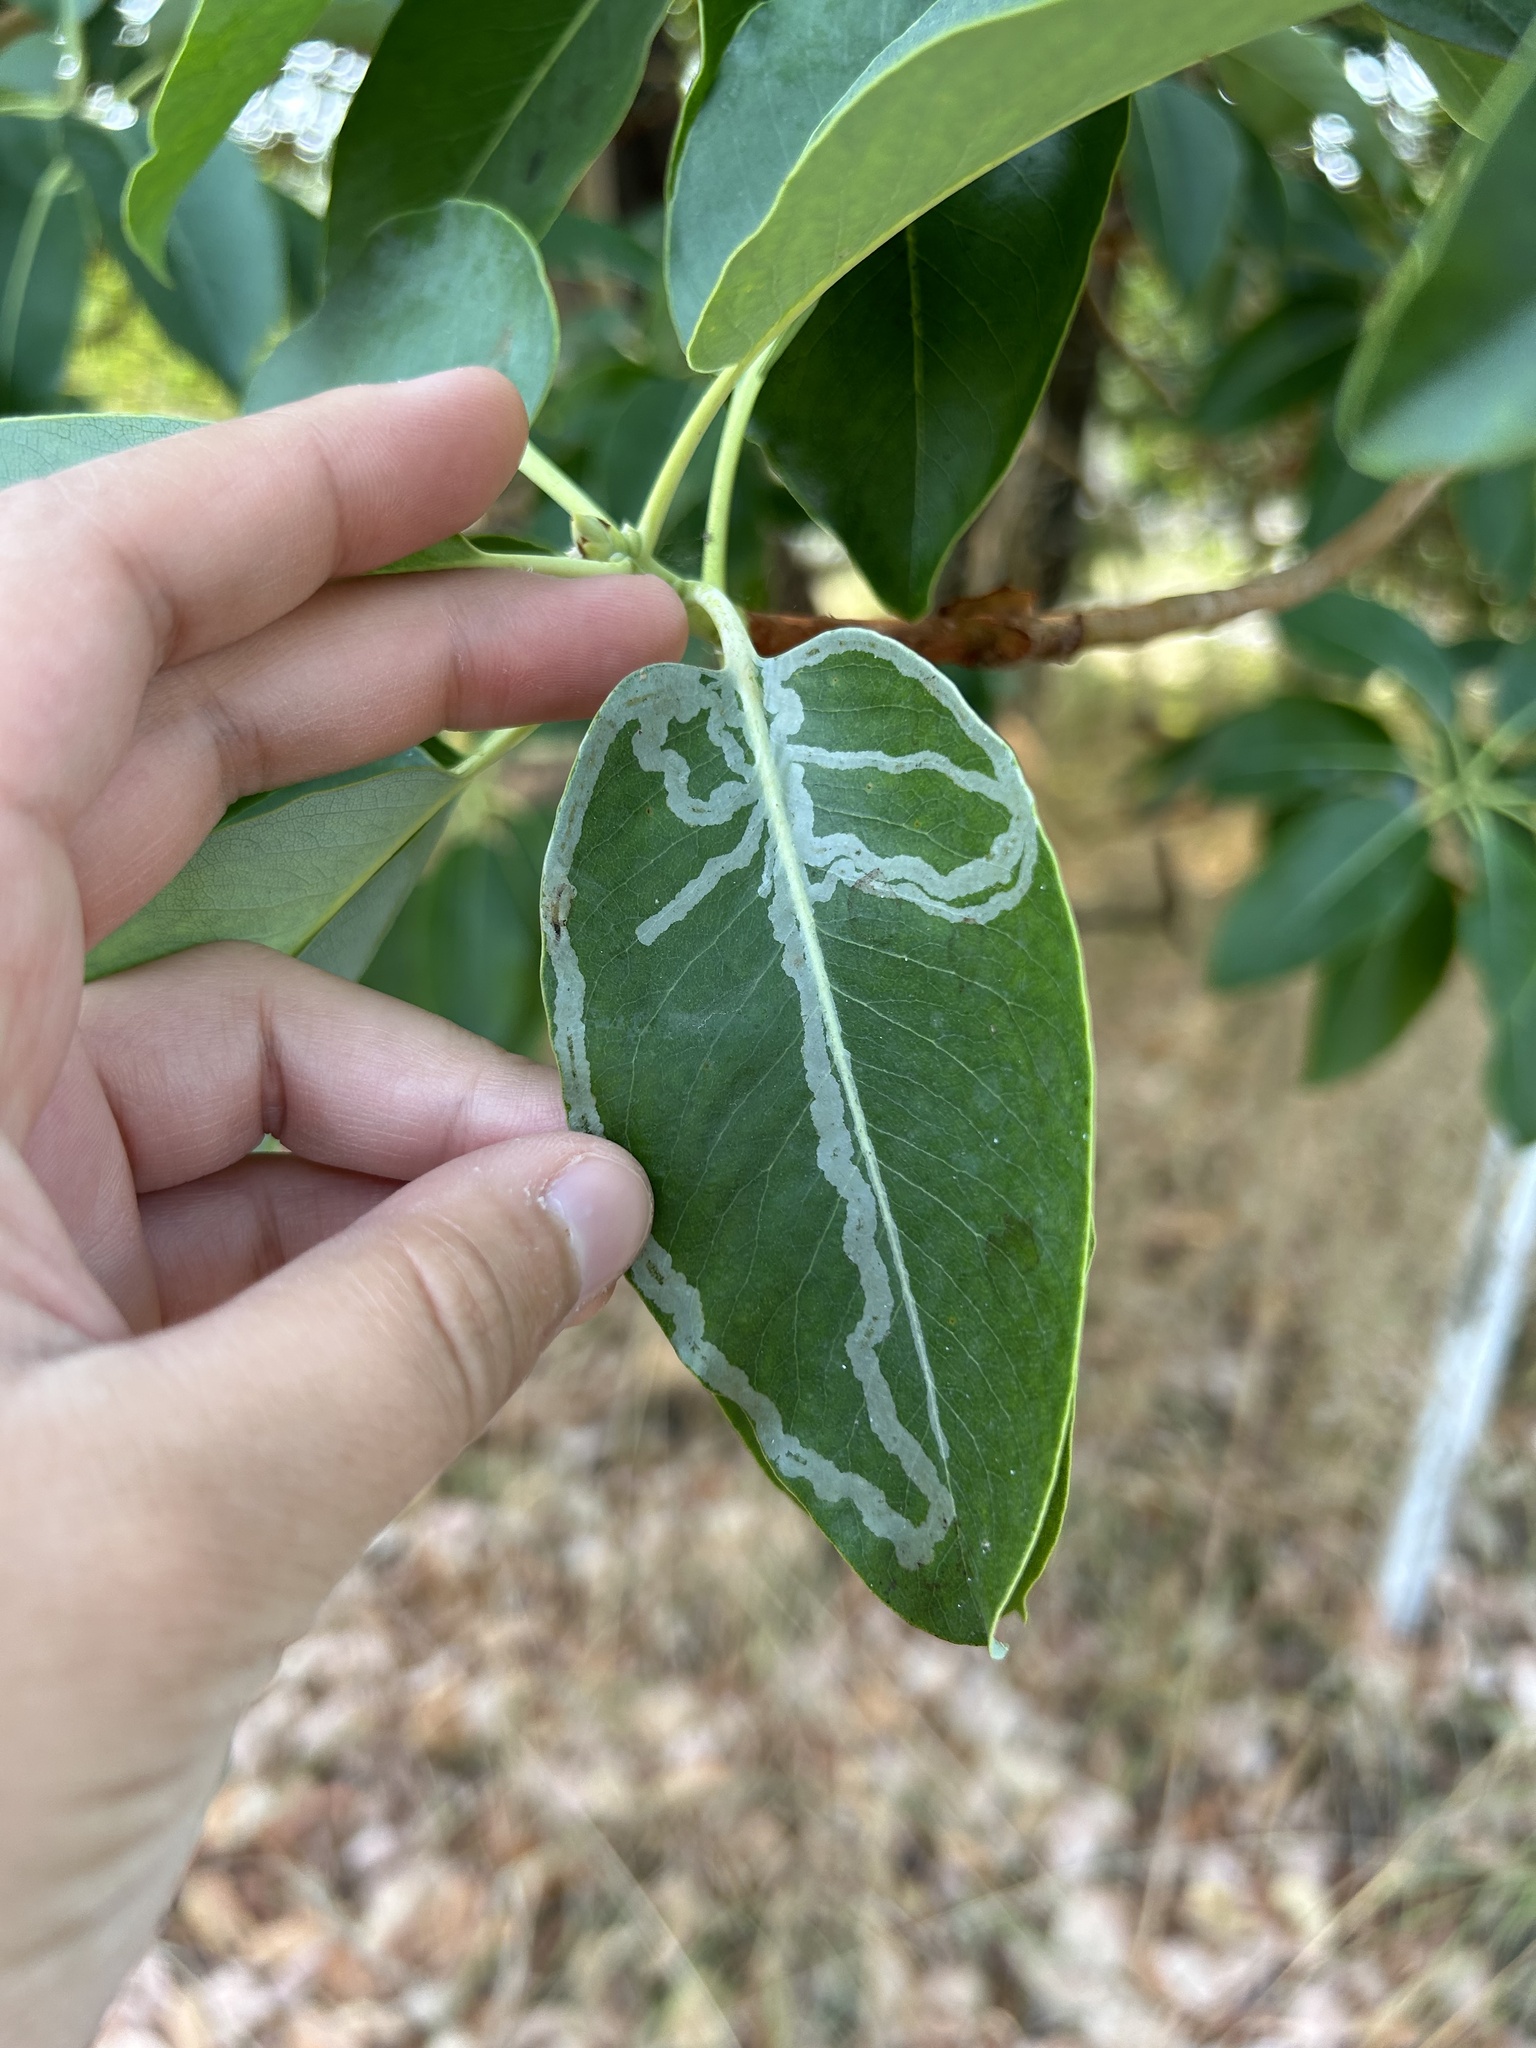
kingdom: Animalia
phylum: Arthropoda
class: Insecta
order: Lepidoptera
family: Gracillariidae
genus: Marmara
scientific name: Marmara arbutiella
